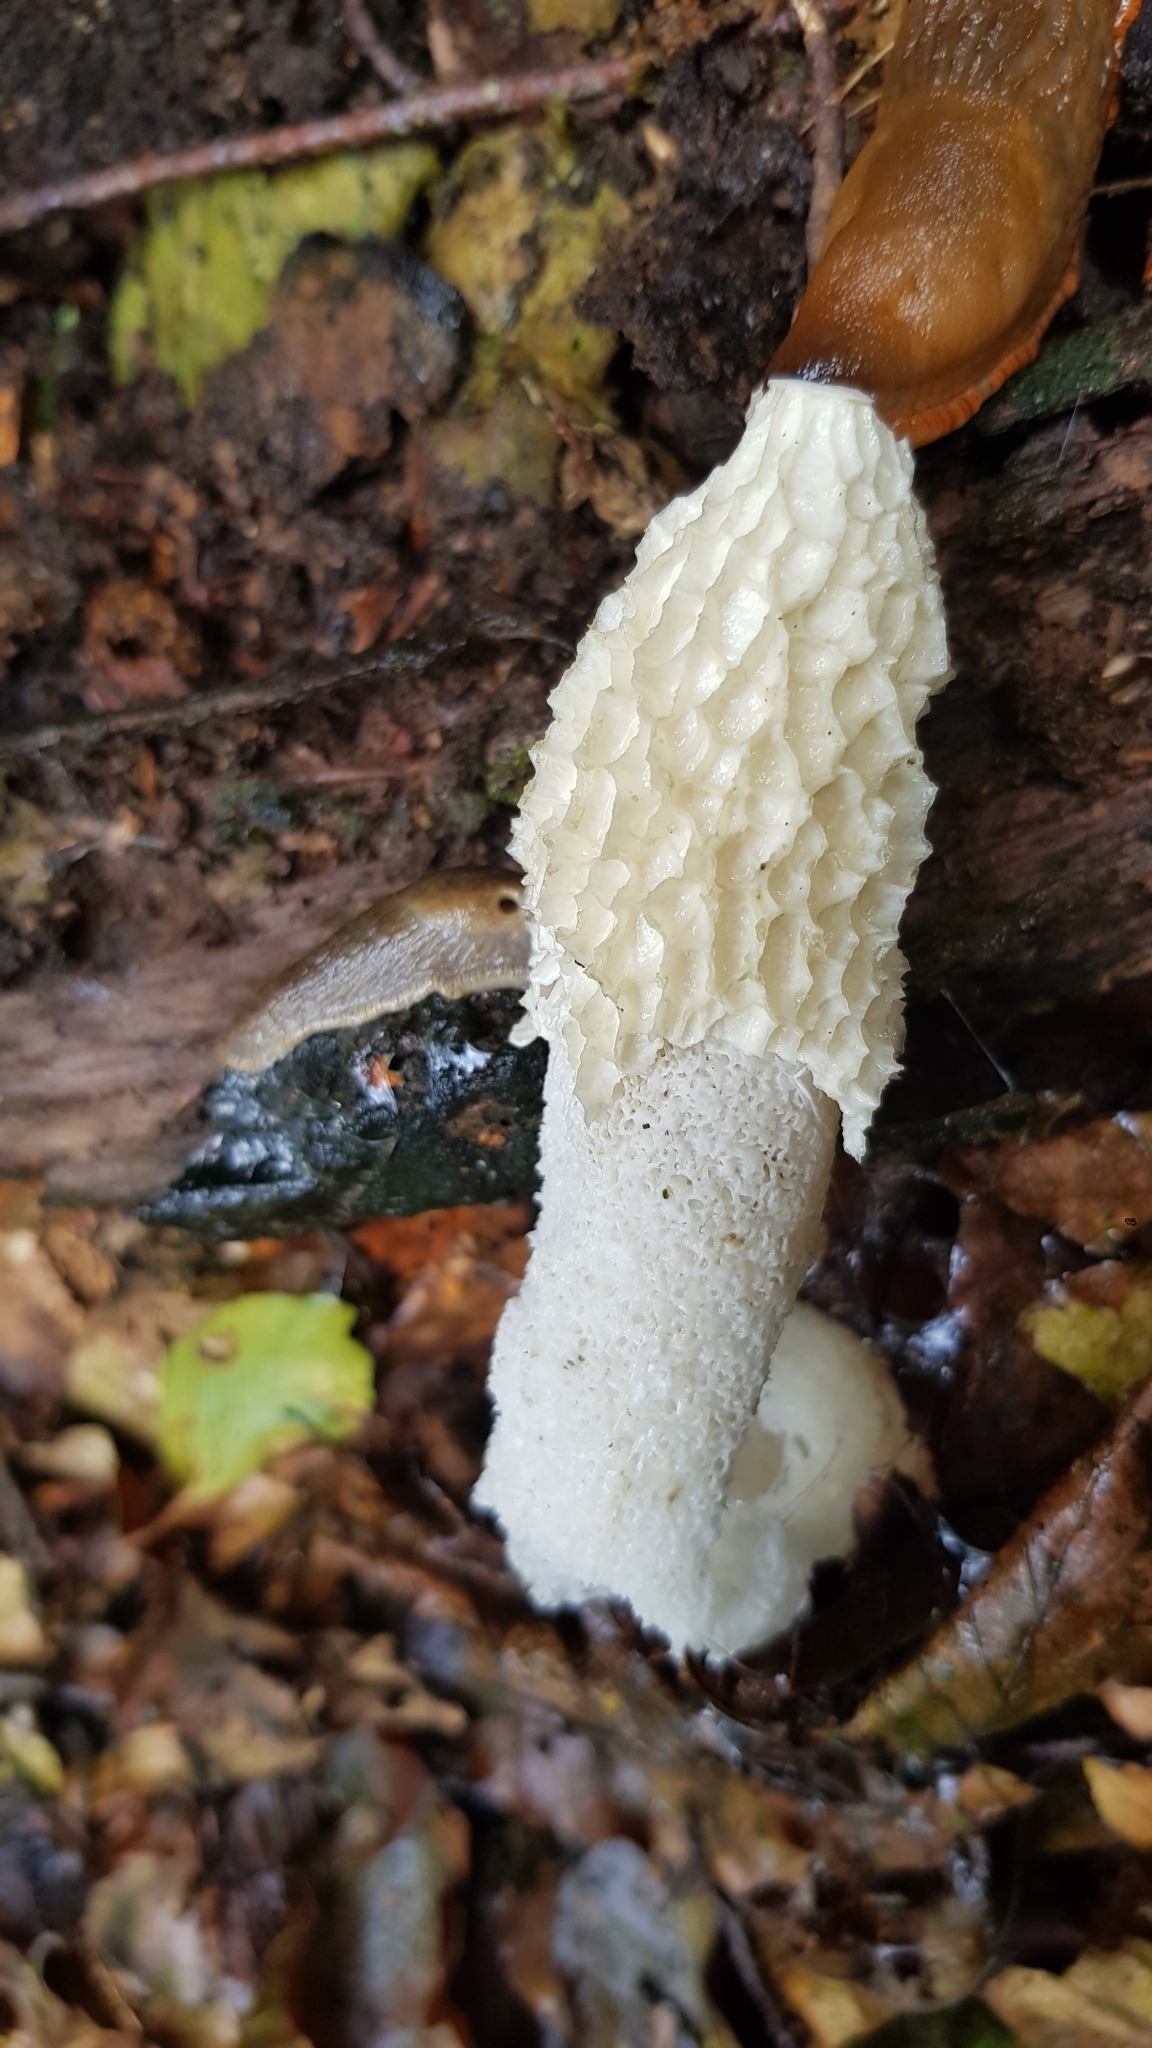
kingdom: Fungi
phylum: Basidiomycota
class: Agaricomycetes
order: Phallales
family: Phallaceae
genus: Phallus
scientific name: Phallus impudicus
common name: Common stinkhorn
